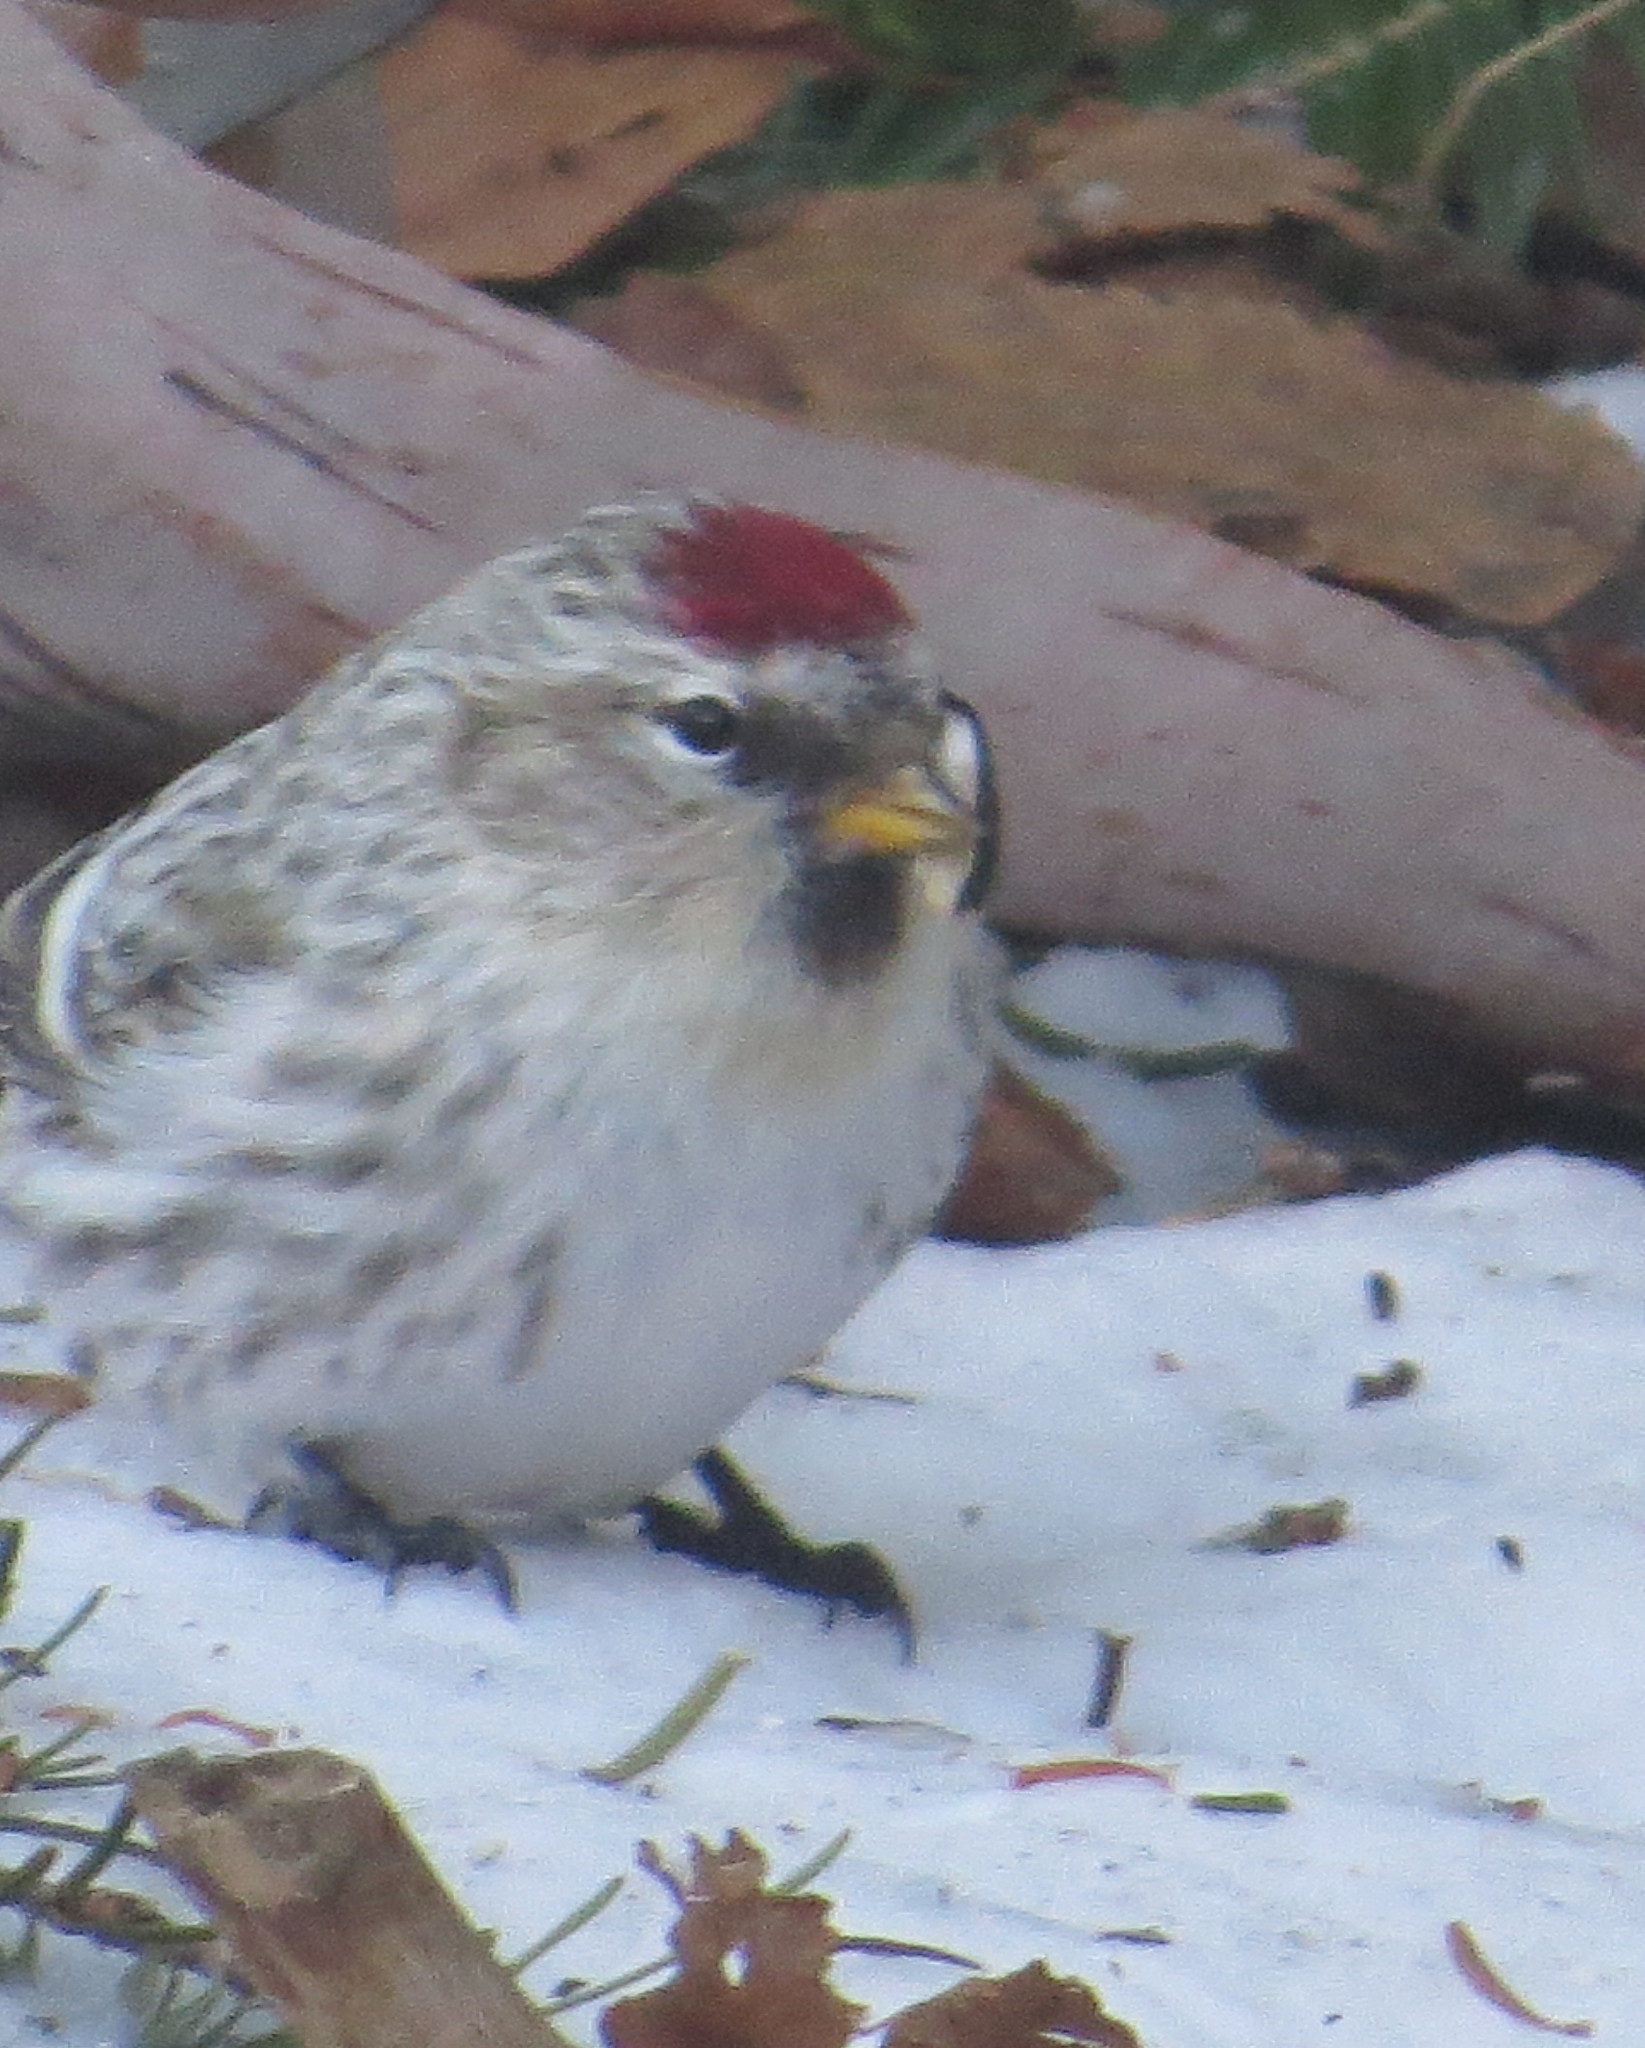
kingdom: Animalia
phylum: Chordata
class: Aves
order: Passeriformes
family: Fringillidae
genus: Acanthis
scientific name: Acanthis hornemanni
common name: Arctic redpoll
